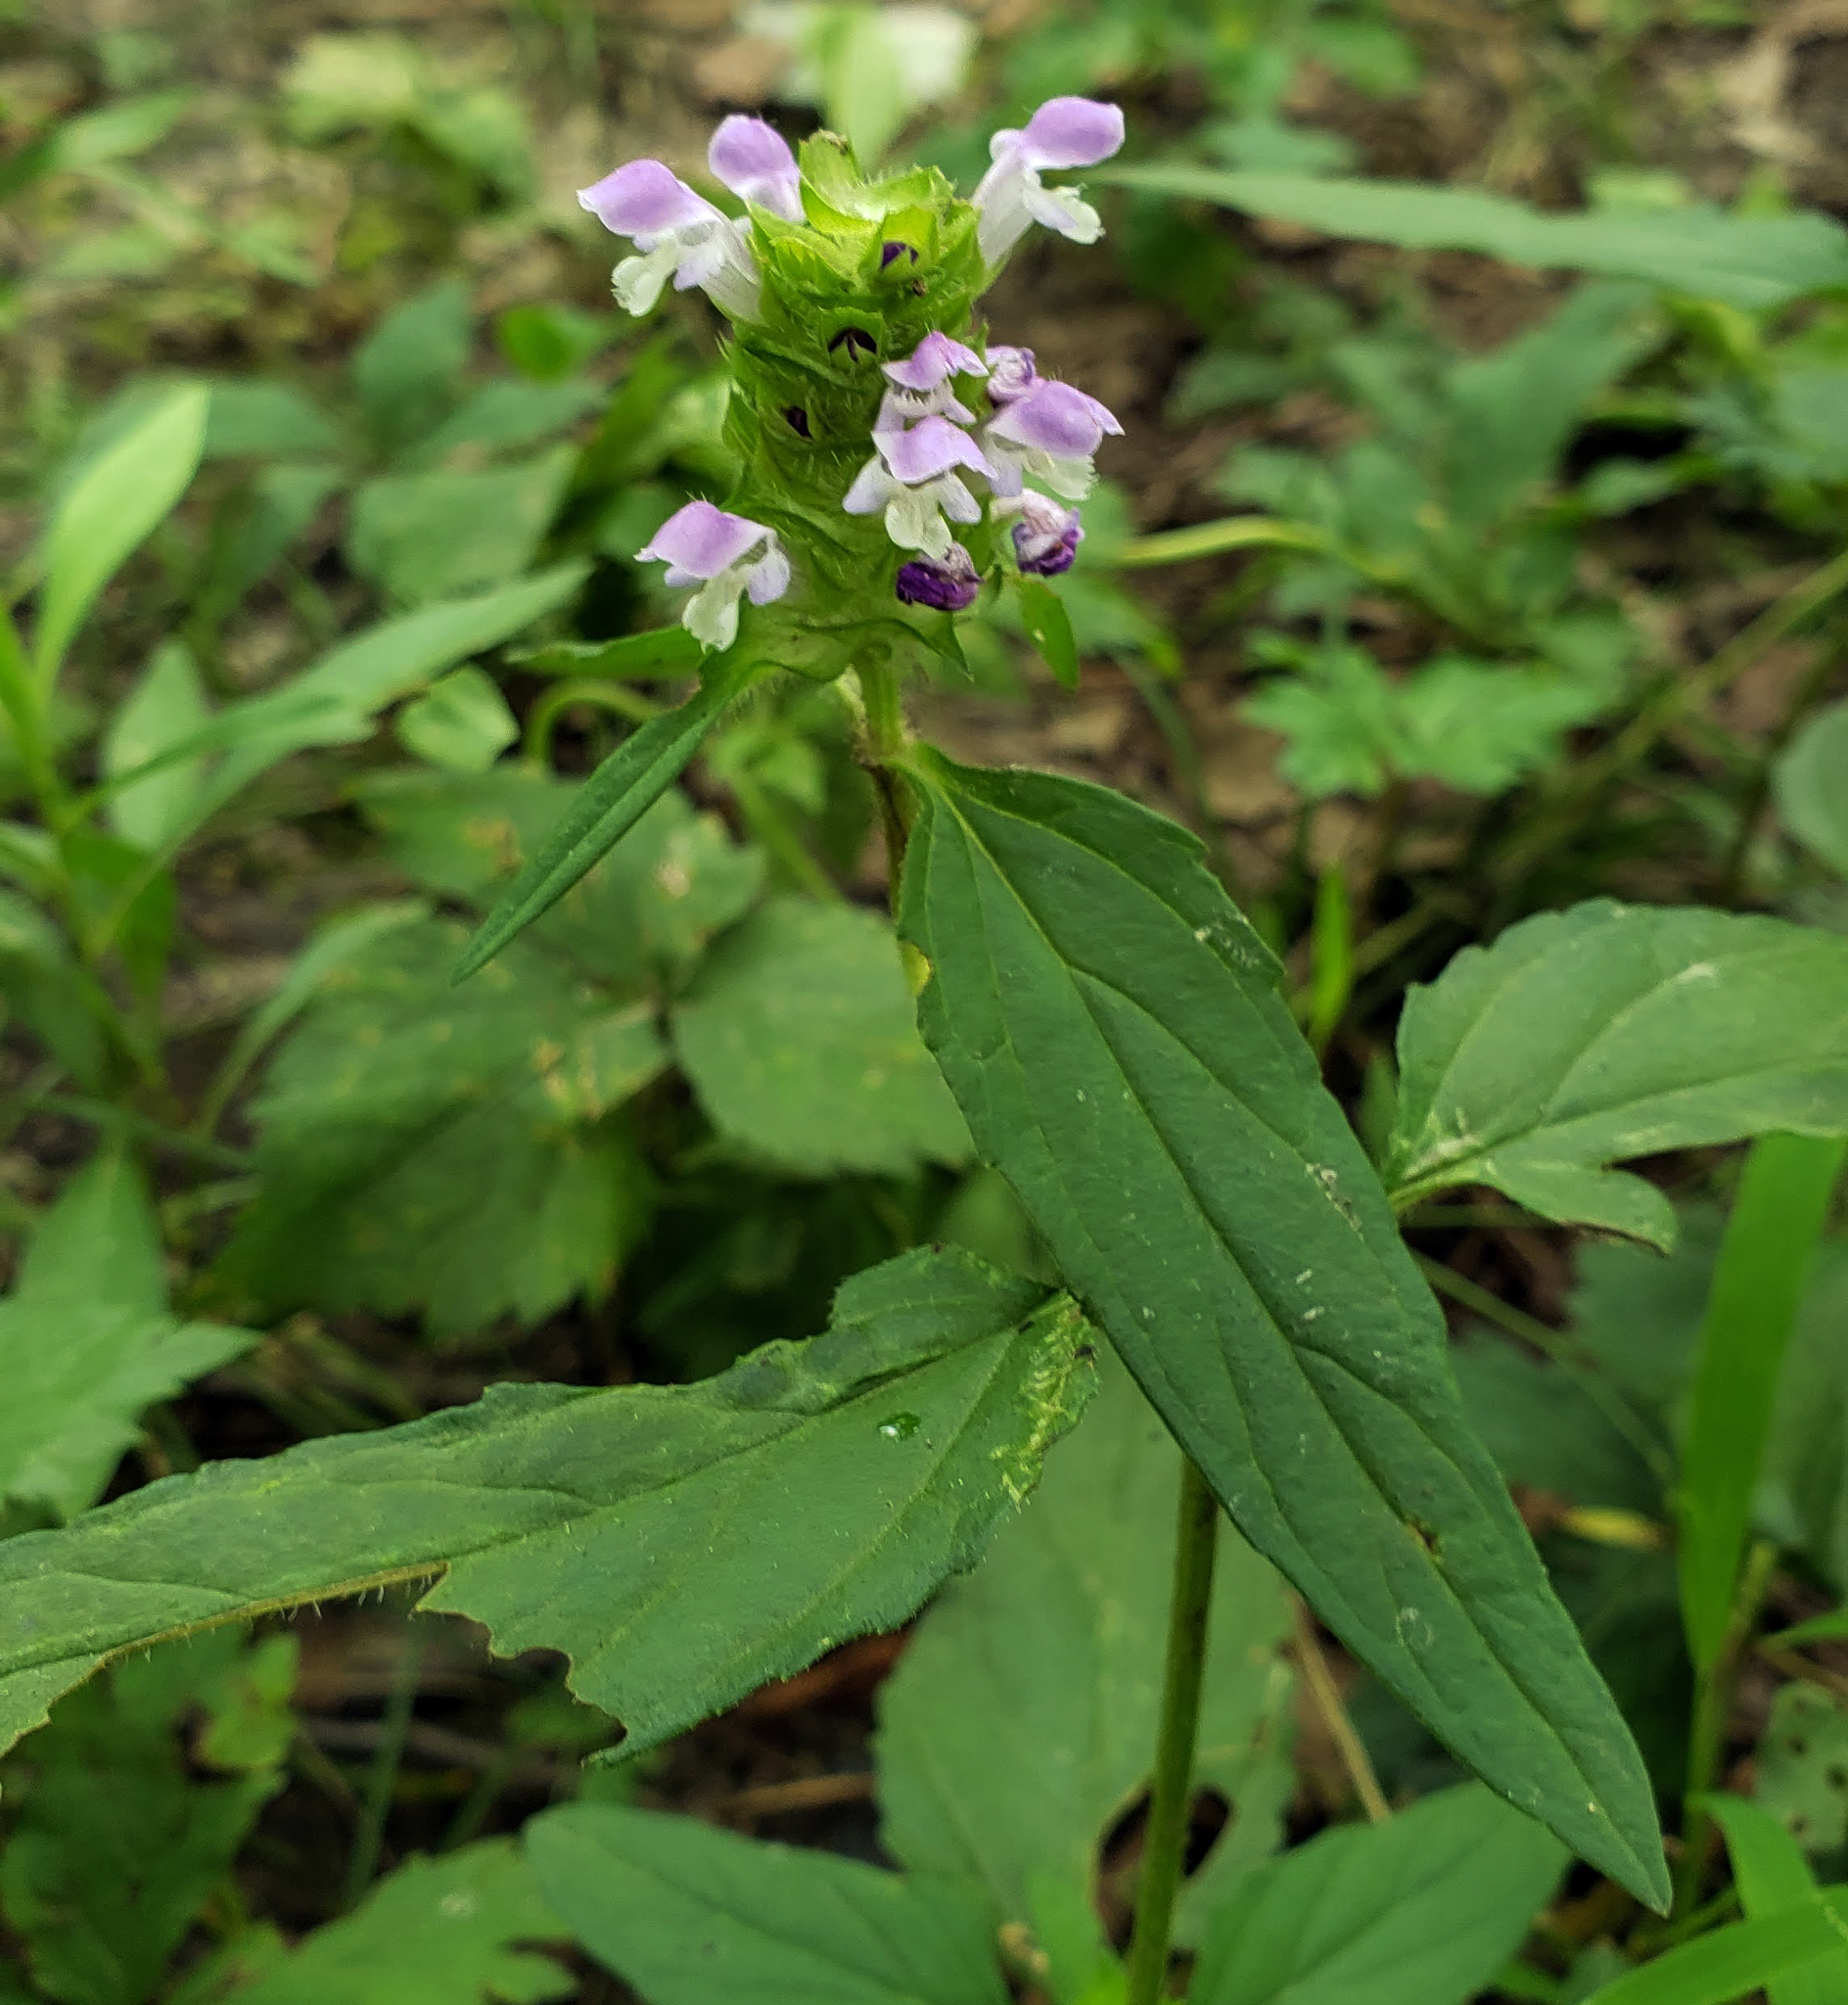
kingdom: Plantae
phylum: Tracheophyta
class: Magnoliopsida
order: Lamiales
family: Lamiaceae
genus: Prunella
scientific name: Prunella vulgaris
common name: Heal-all
